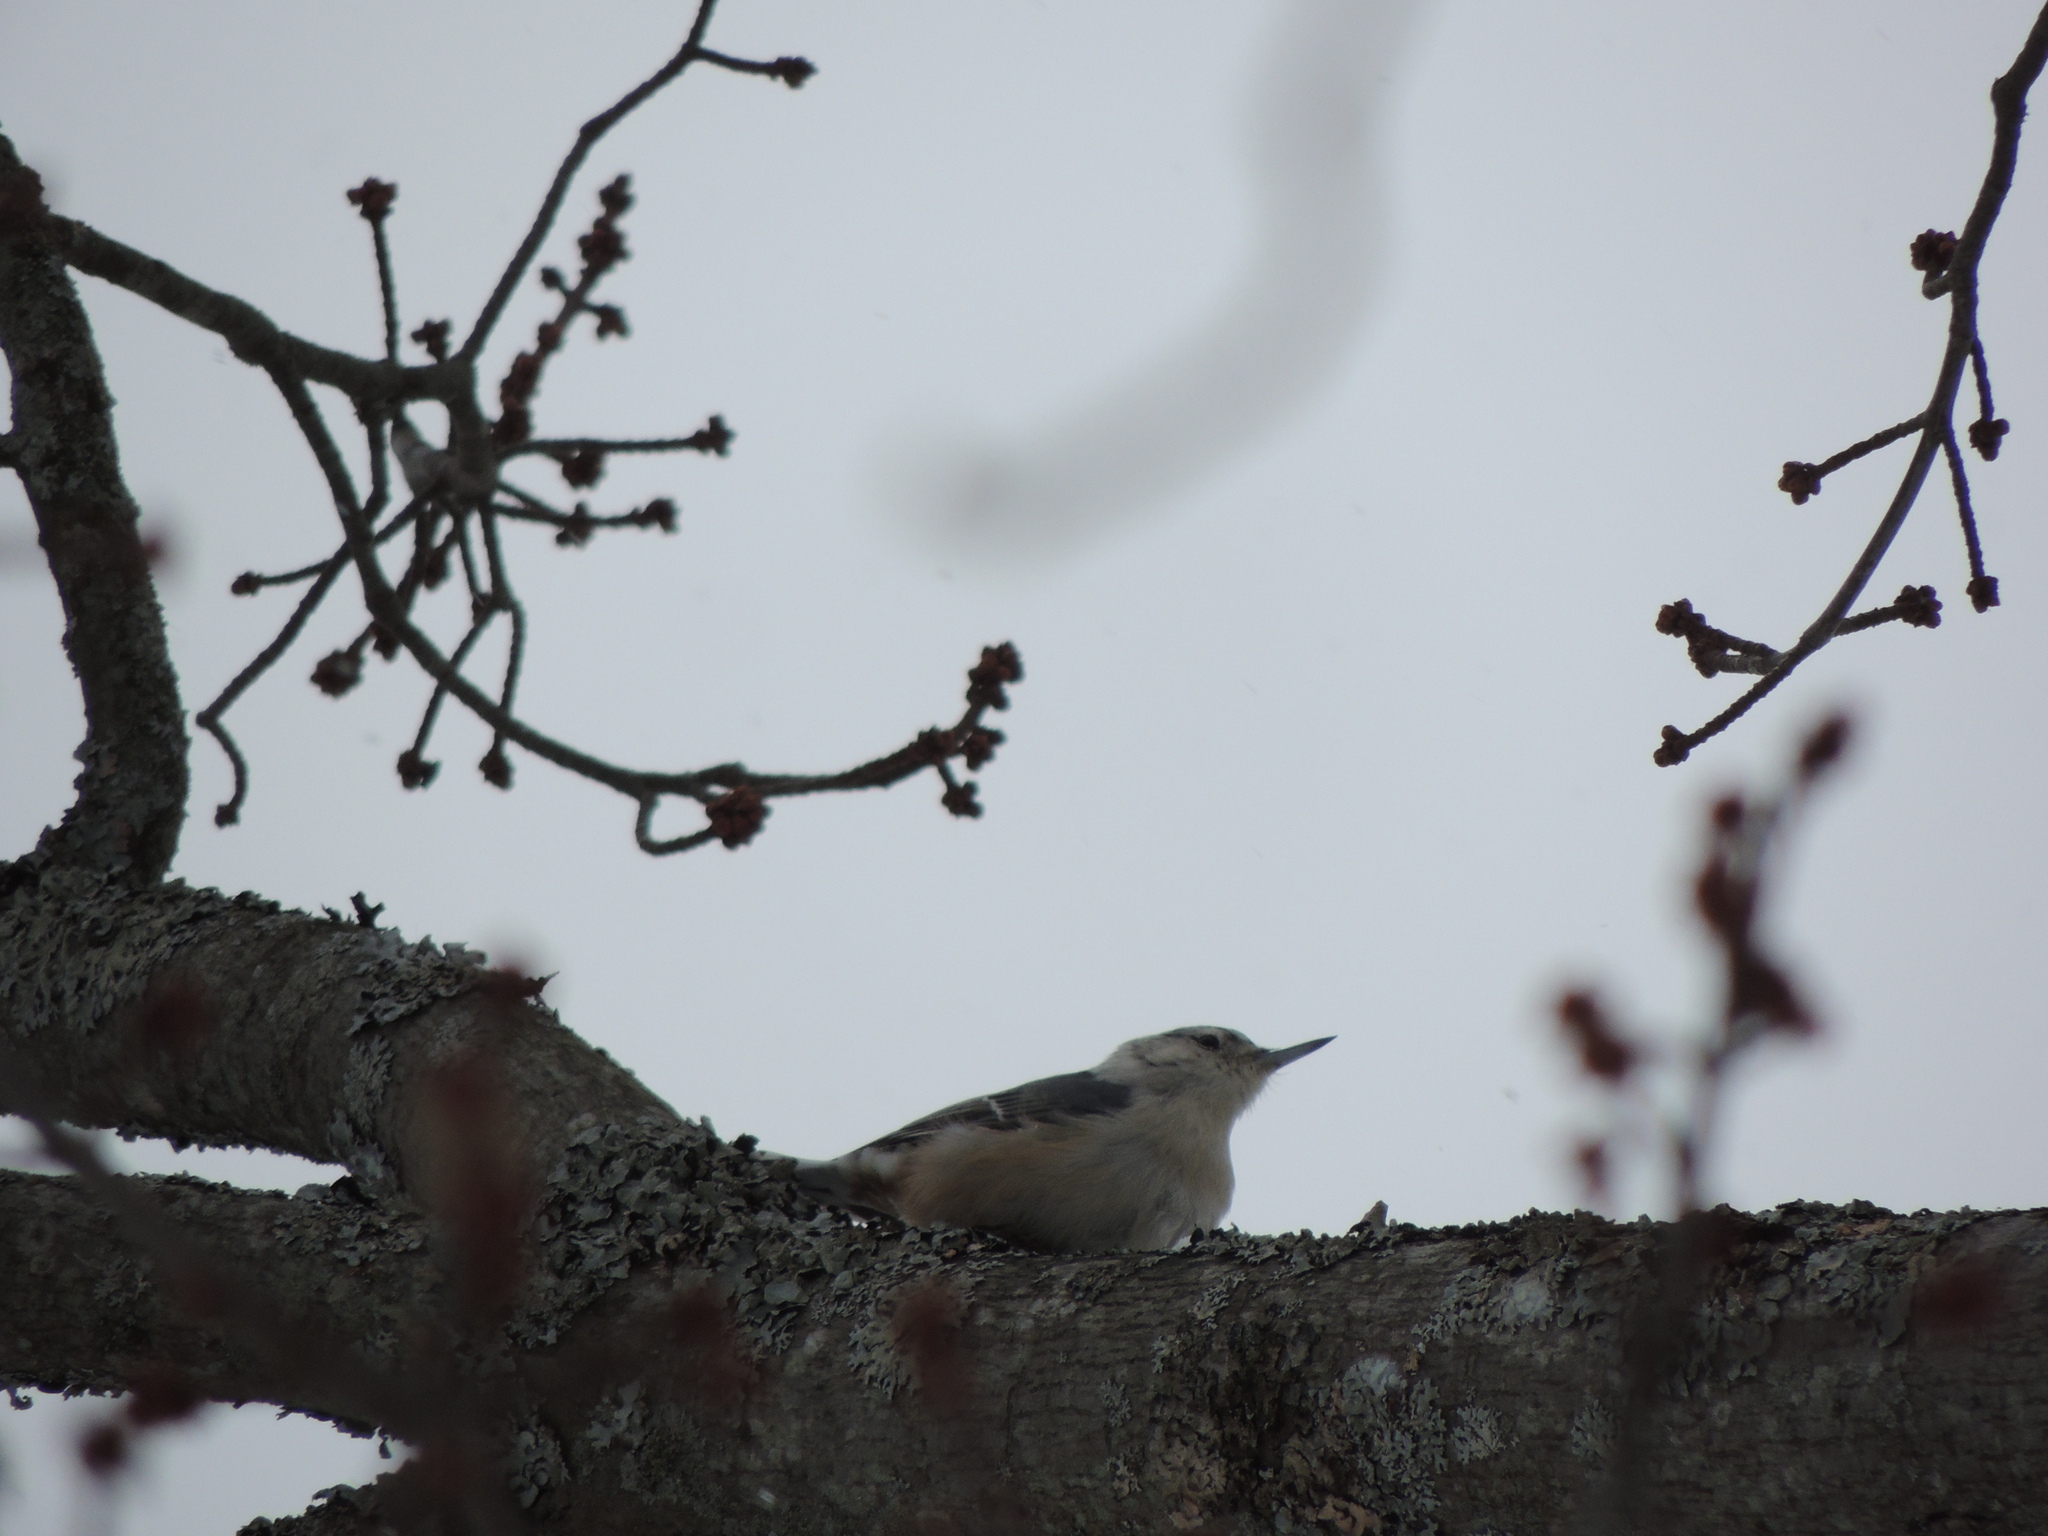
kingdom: Animalia
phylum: Chordata
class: Aves
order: Passeriformes
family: Sittidae
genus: Sitta
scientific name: Sitta carolinensis
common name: White-breasted nuthatch
